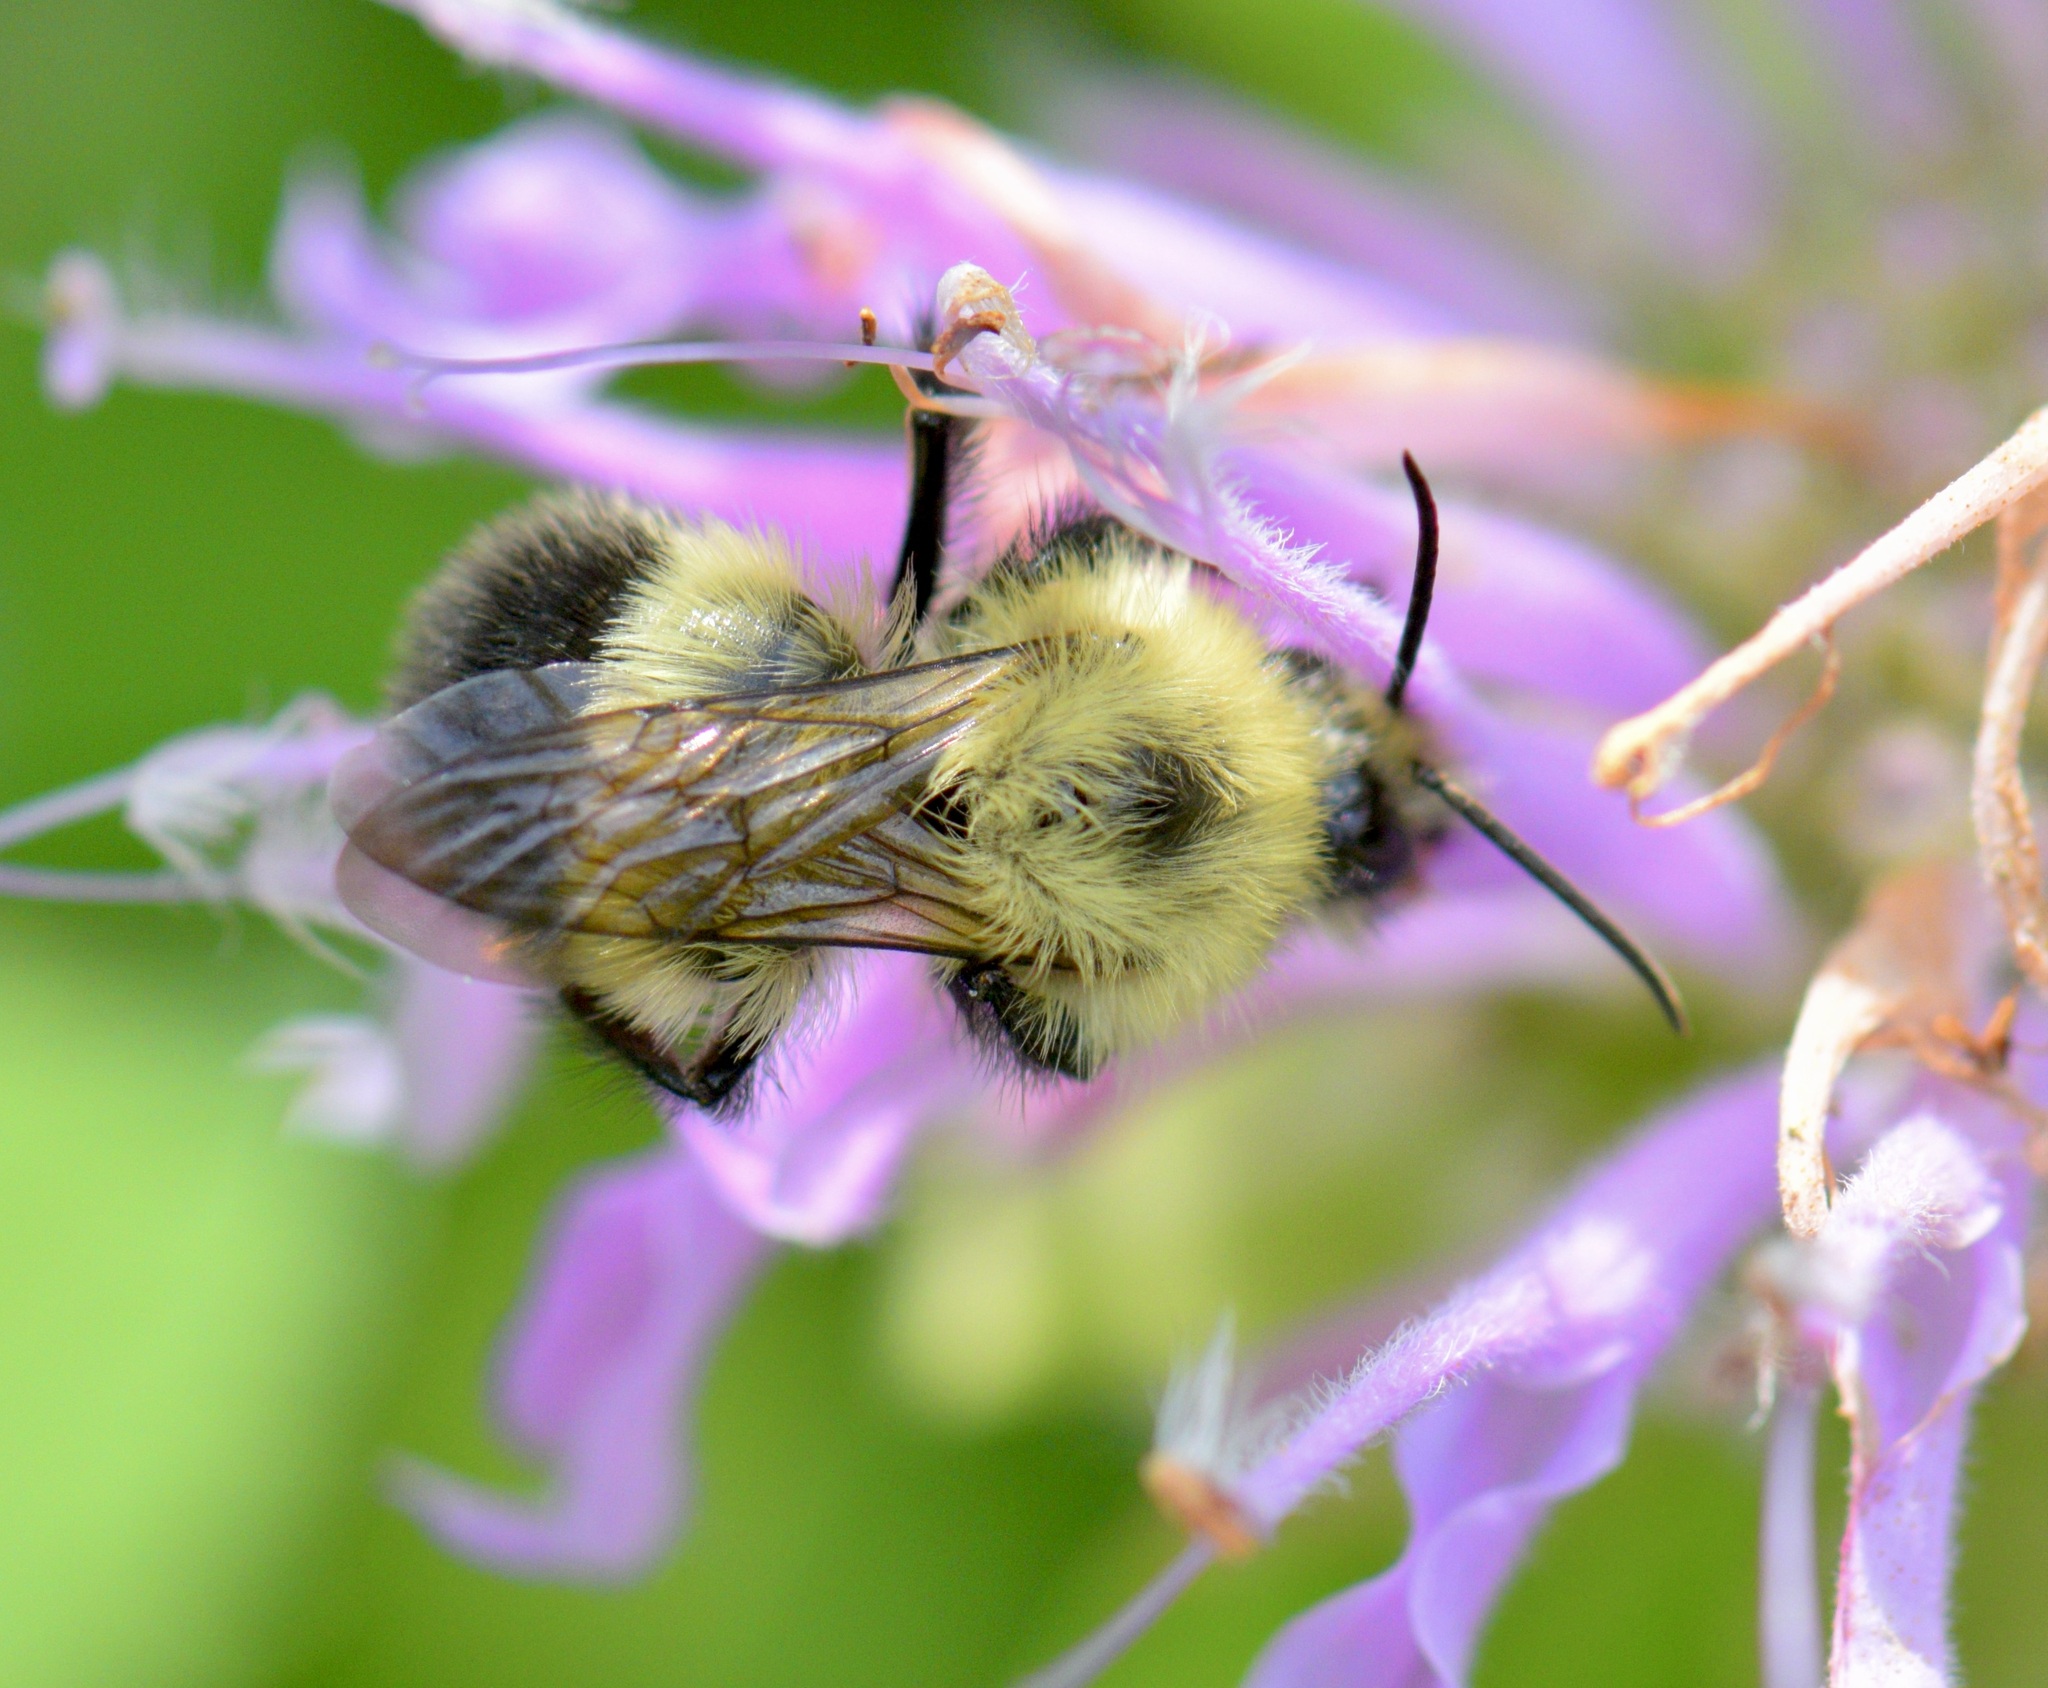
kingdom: Animalia
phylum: Arthropoda
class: Insecta
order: Hymenoptera
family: Apidae
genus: Bombus
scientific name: Bombus vagans
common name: Half-black bumble bee
